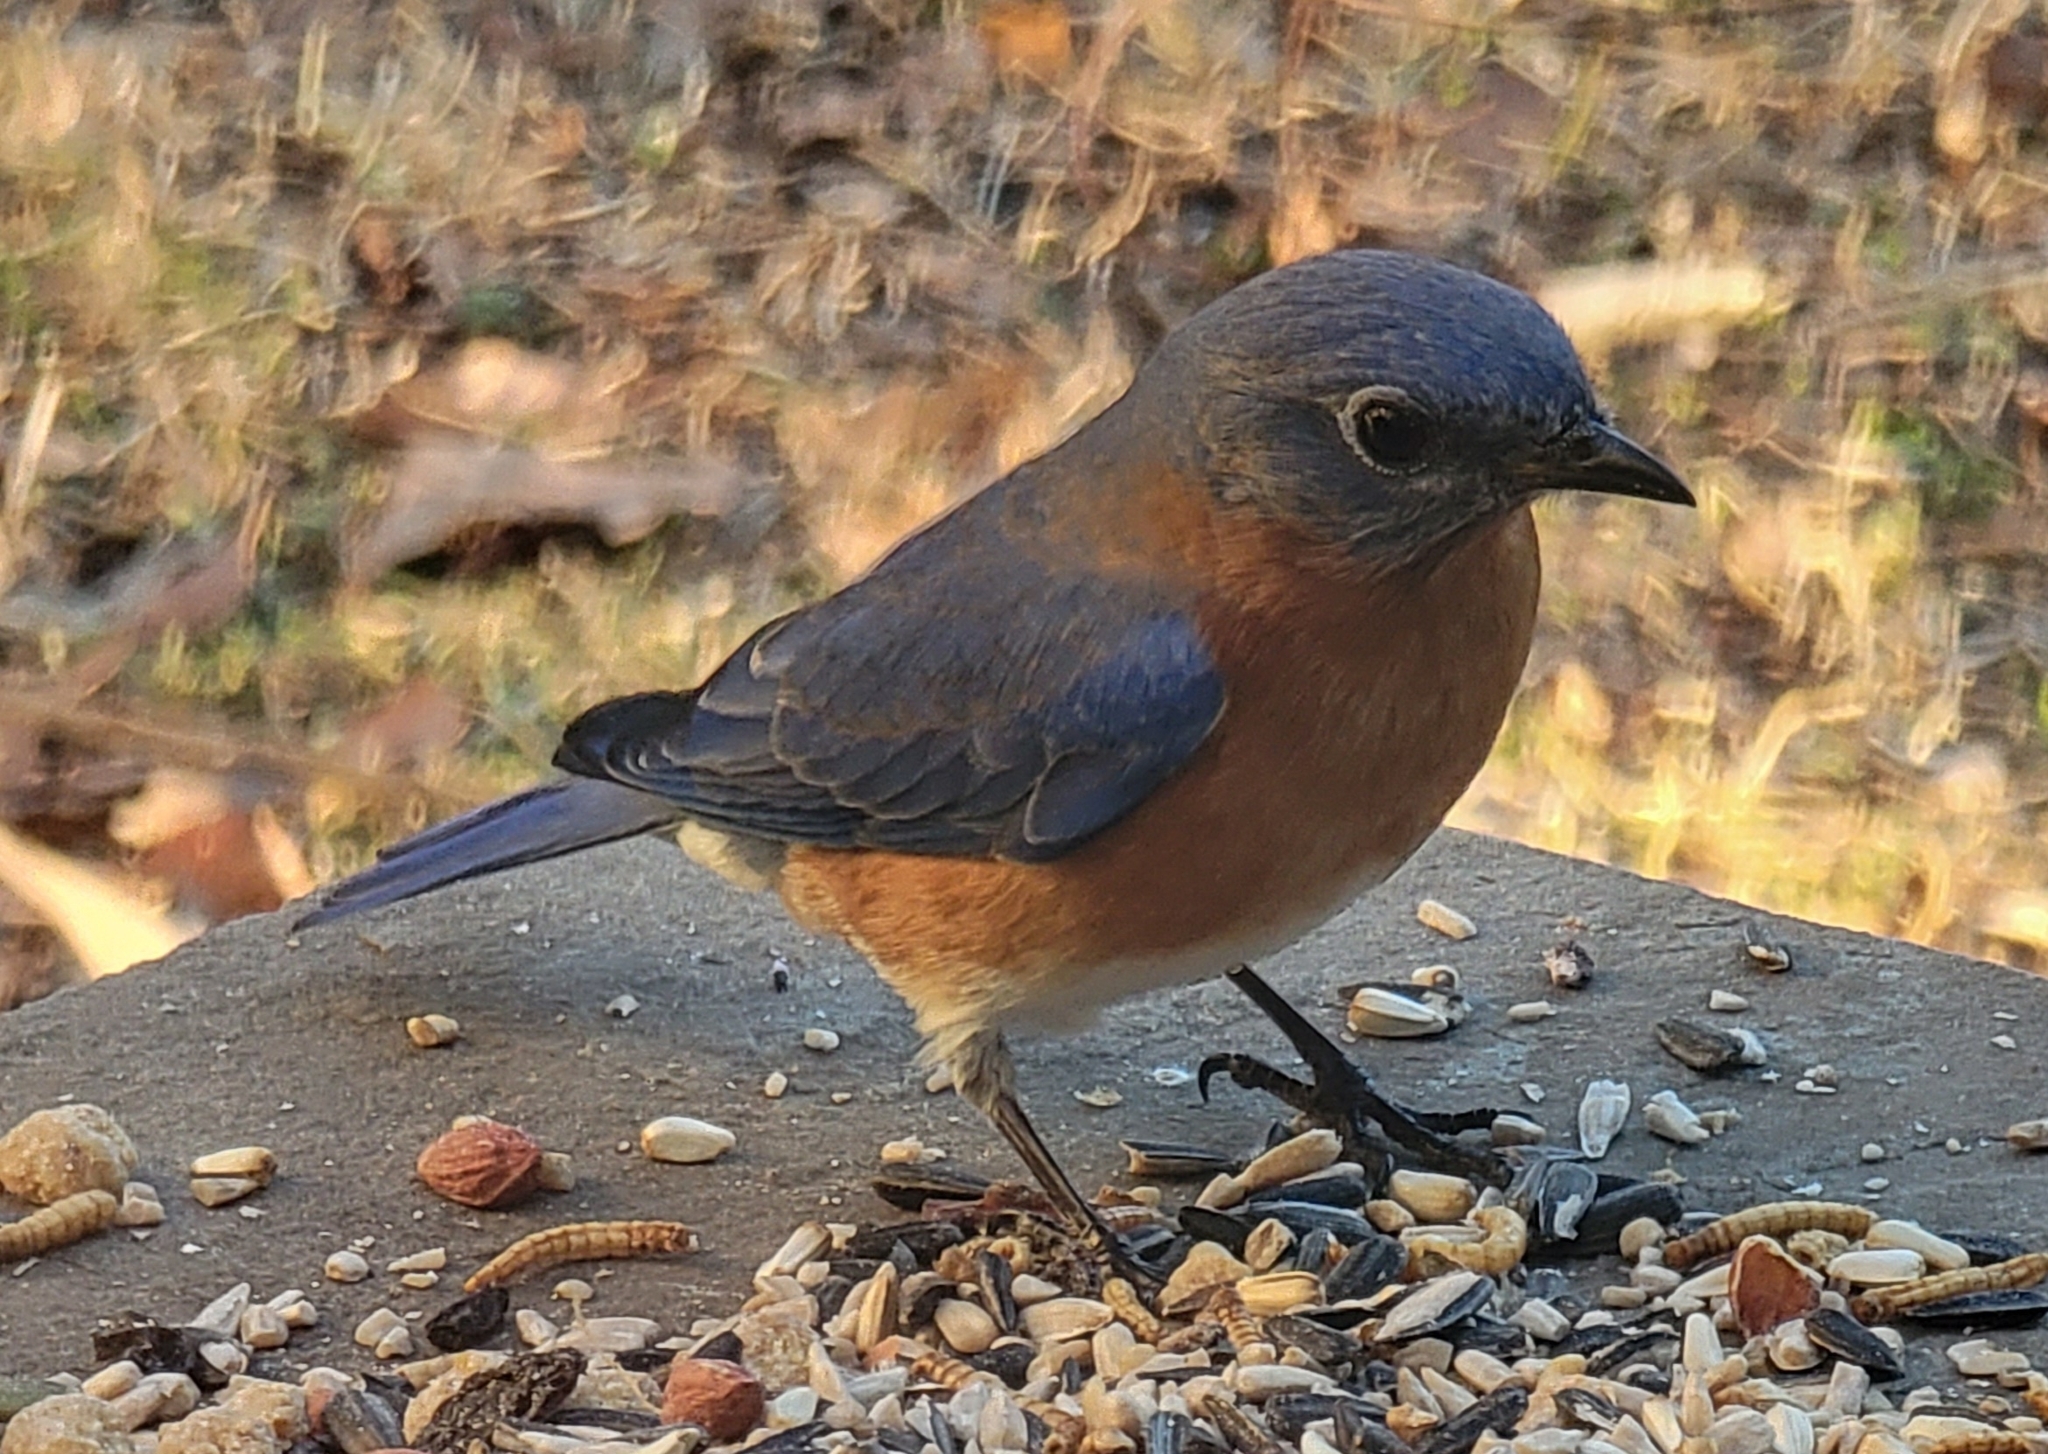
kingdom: Animalia
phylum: Chordata
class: Aves
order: Passeriformes
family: Turdidae
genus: Sialia
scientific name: Sialia sialis
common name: Eastern bluebird
